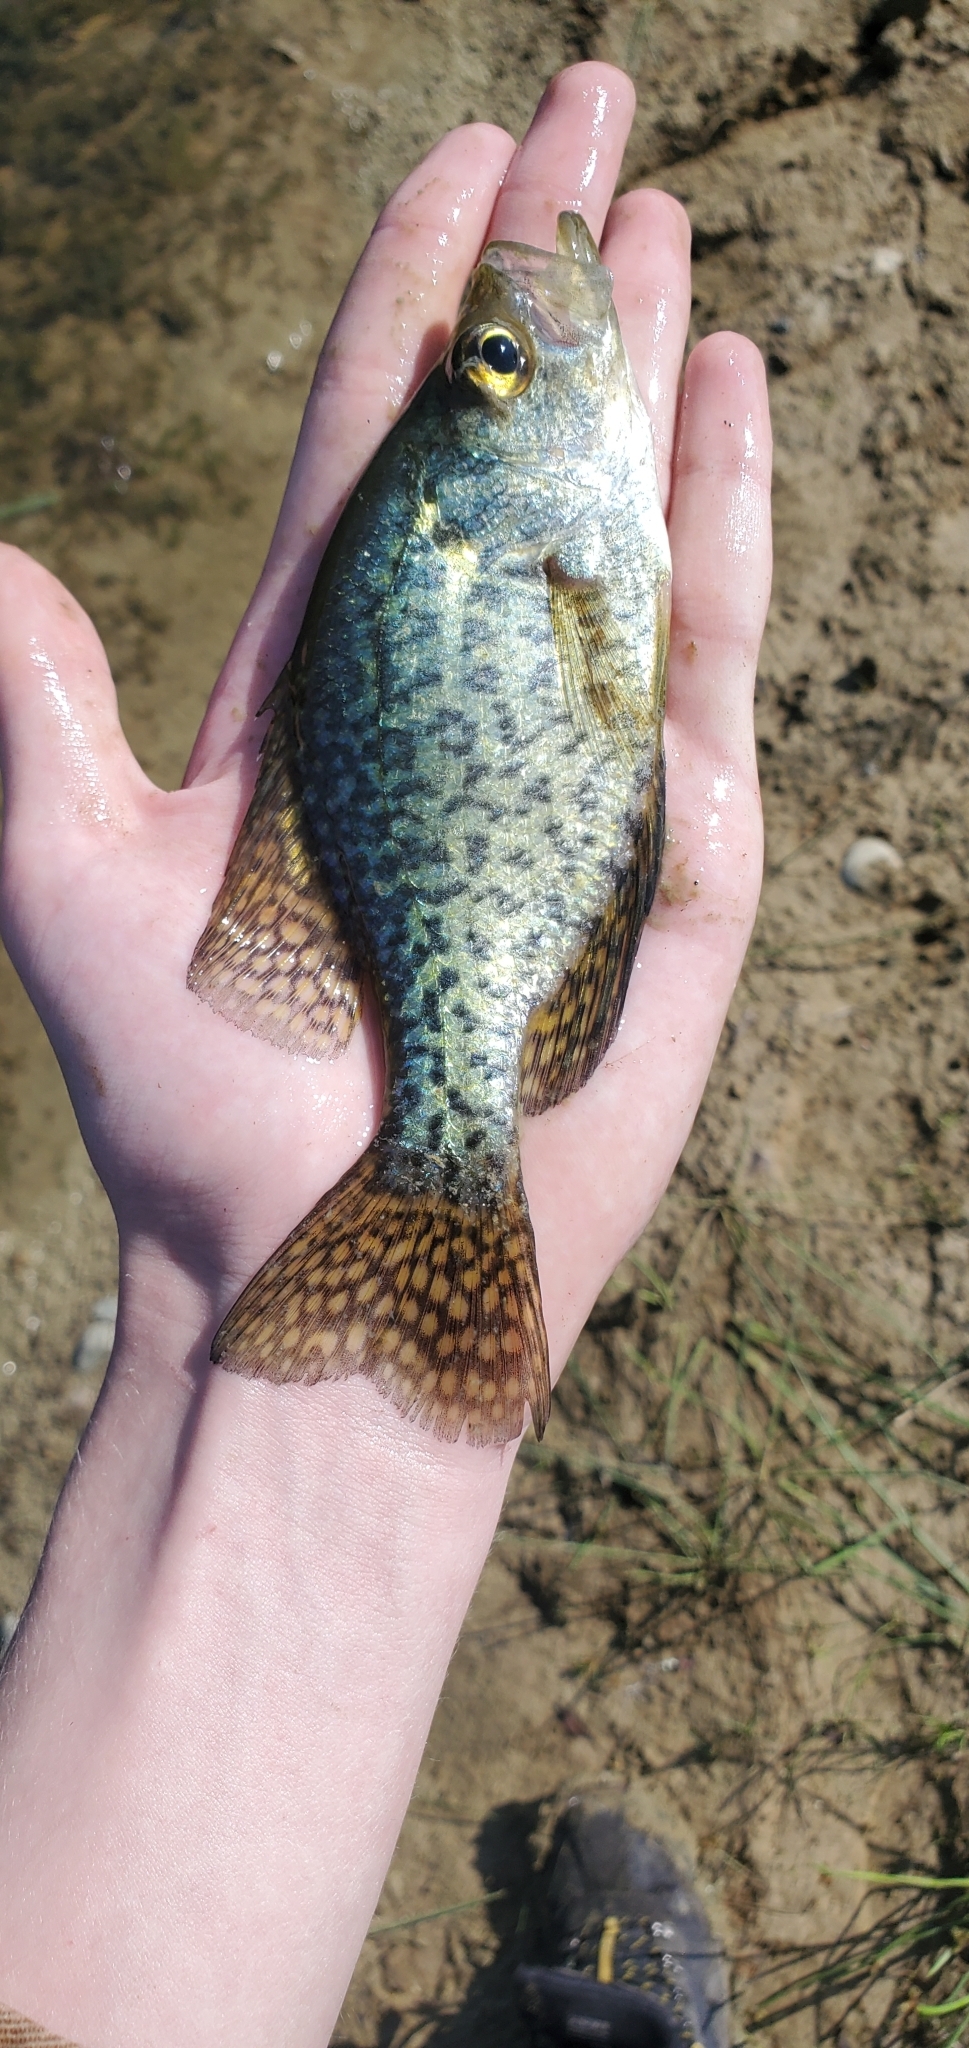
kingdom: Animalia
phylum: Chordata
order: Perciformes
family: Centrarchidae
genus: Pomoxis
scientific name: Pomoxis nigromaculatus
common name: Black crappie
